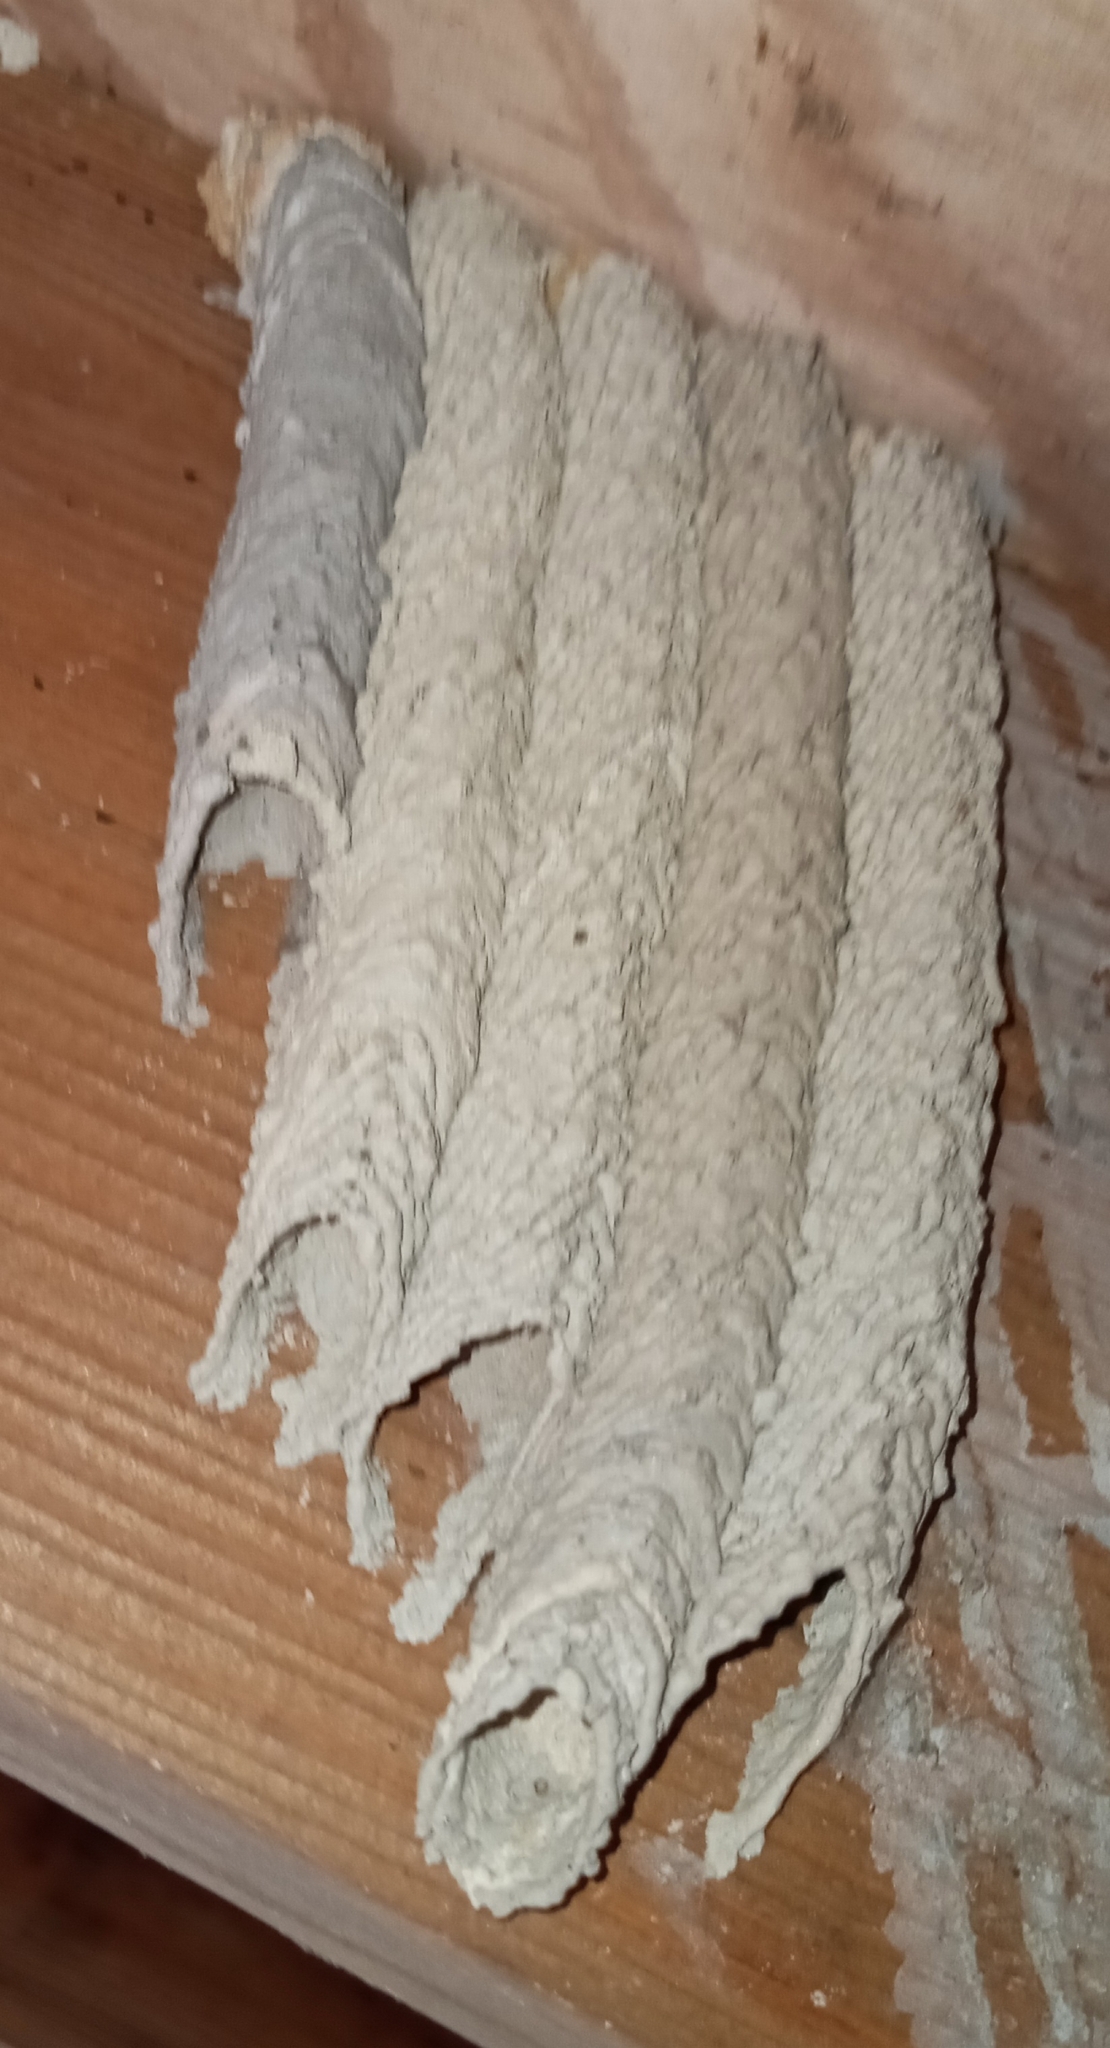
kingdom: Animalia
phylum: Arthropoda
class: Insecta
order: Hymenoptera
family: Crabronidae
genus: Trypoxylon
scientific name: Trypoxylon politum
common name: Organ-pipe mud-dauber wasp
